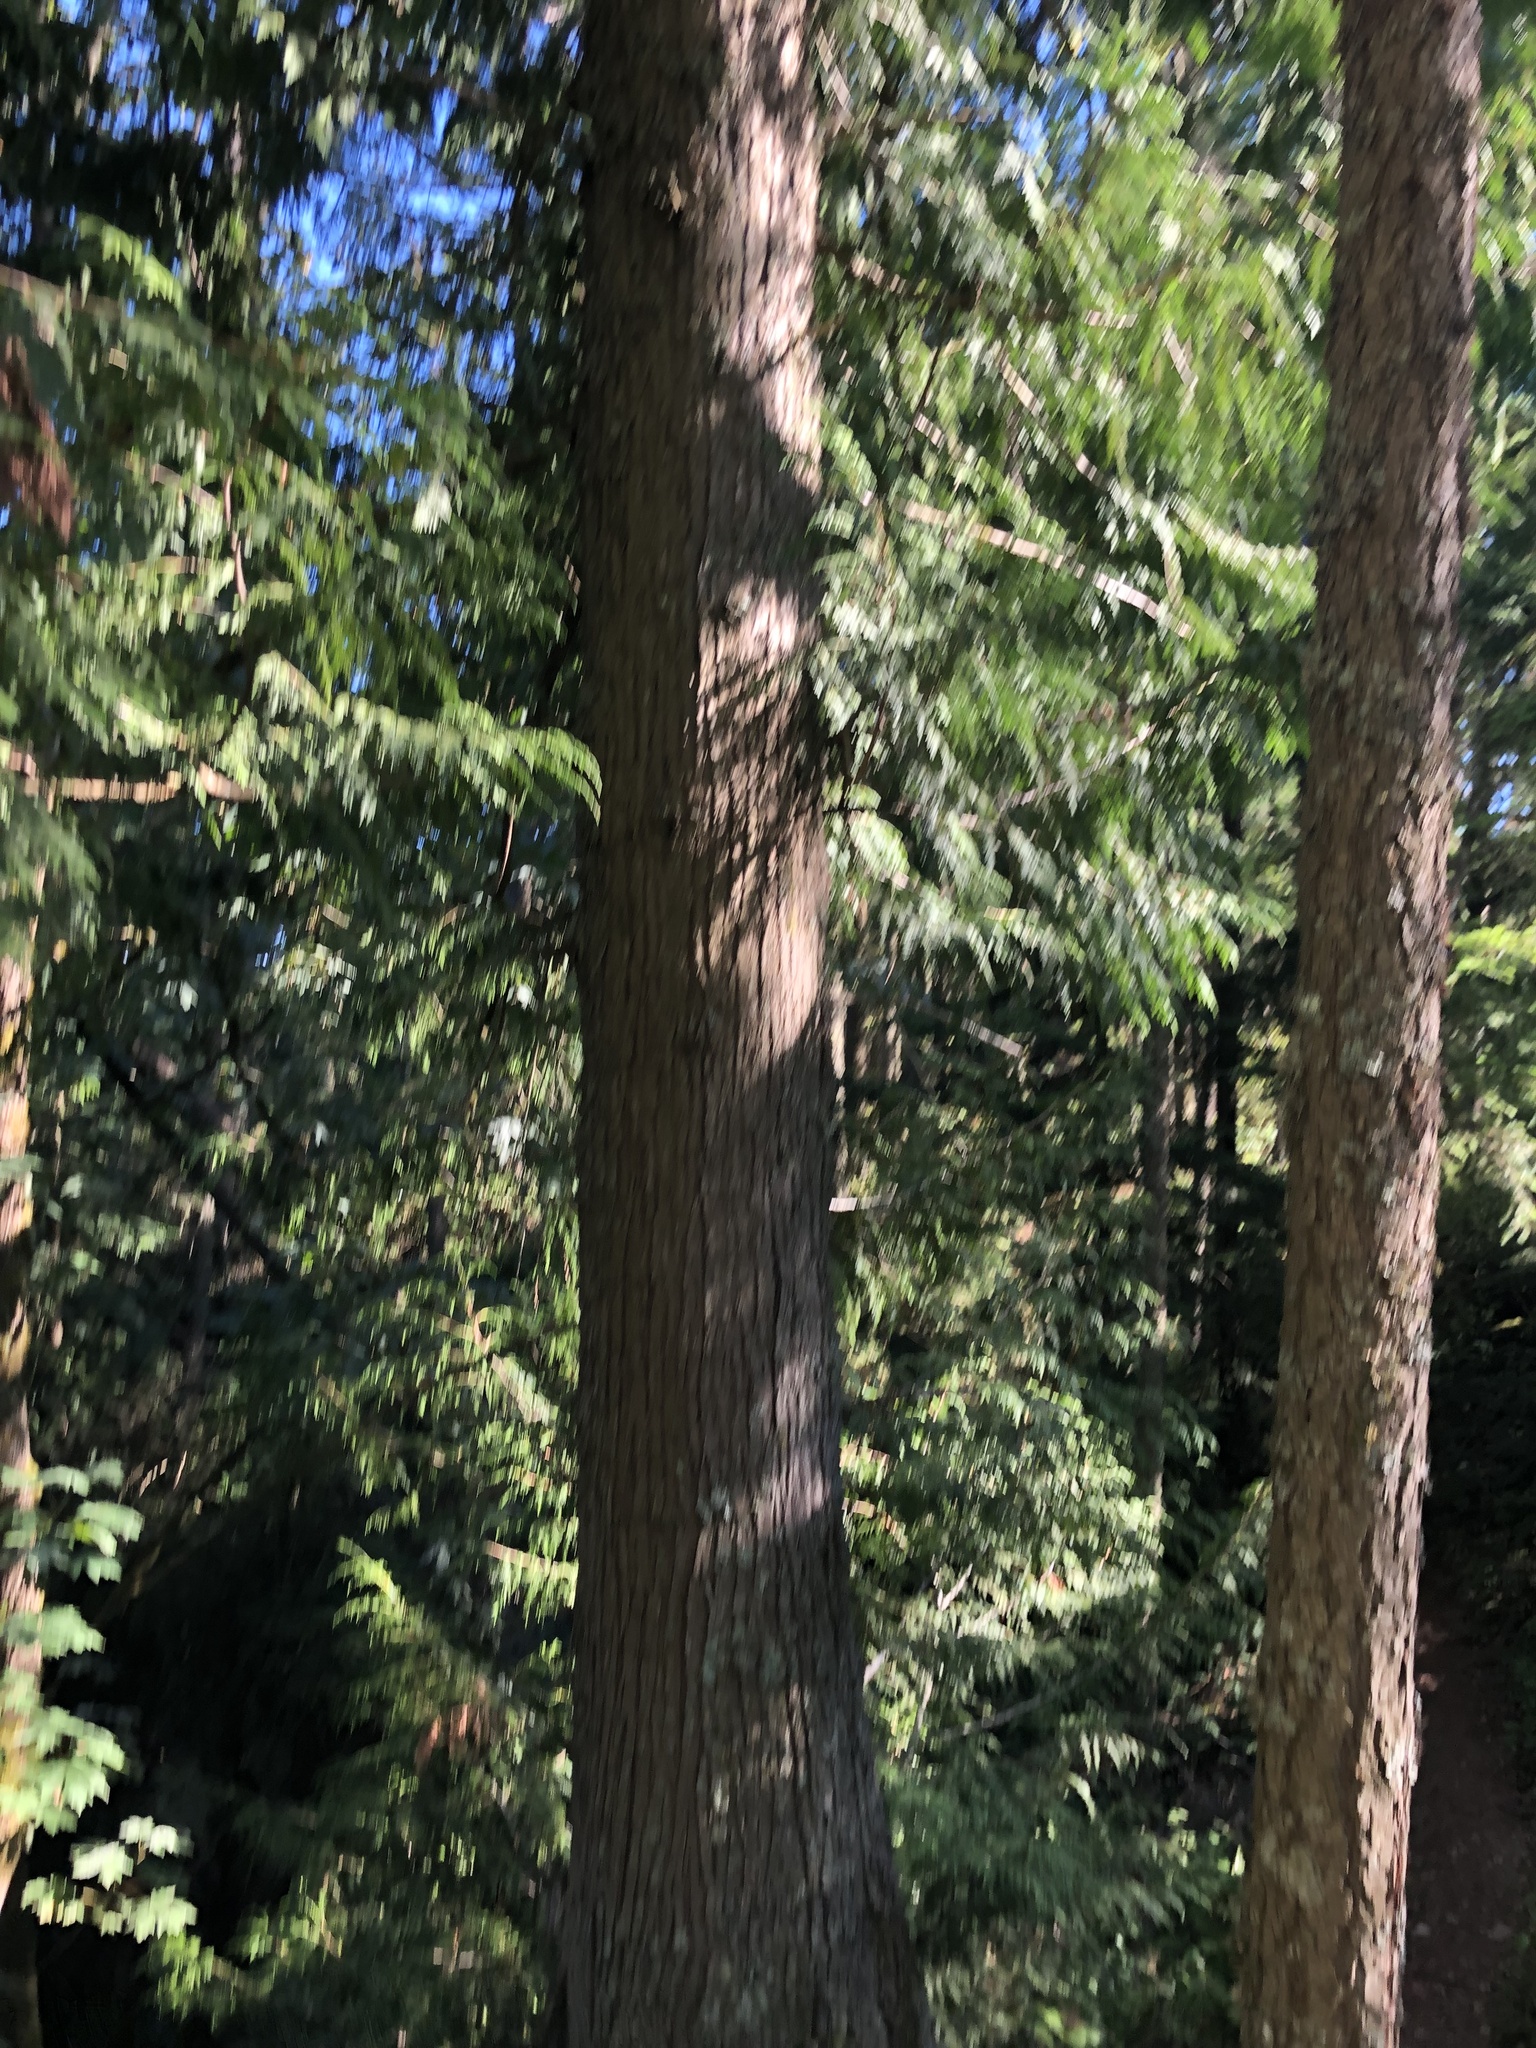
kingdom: Plantae
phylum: Tracheophyta
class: Pinopsida
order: Pinales
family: Cupressaceae
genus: Thuja
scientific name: Thuja plicata
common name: Western red-cedar
